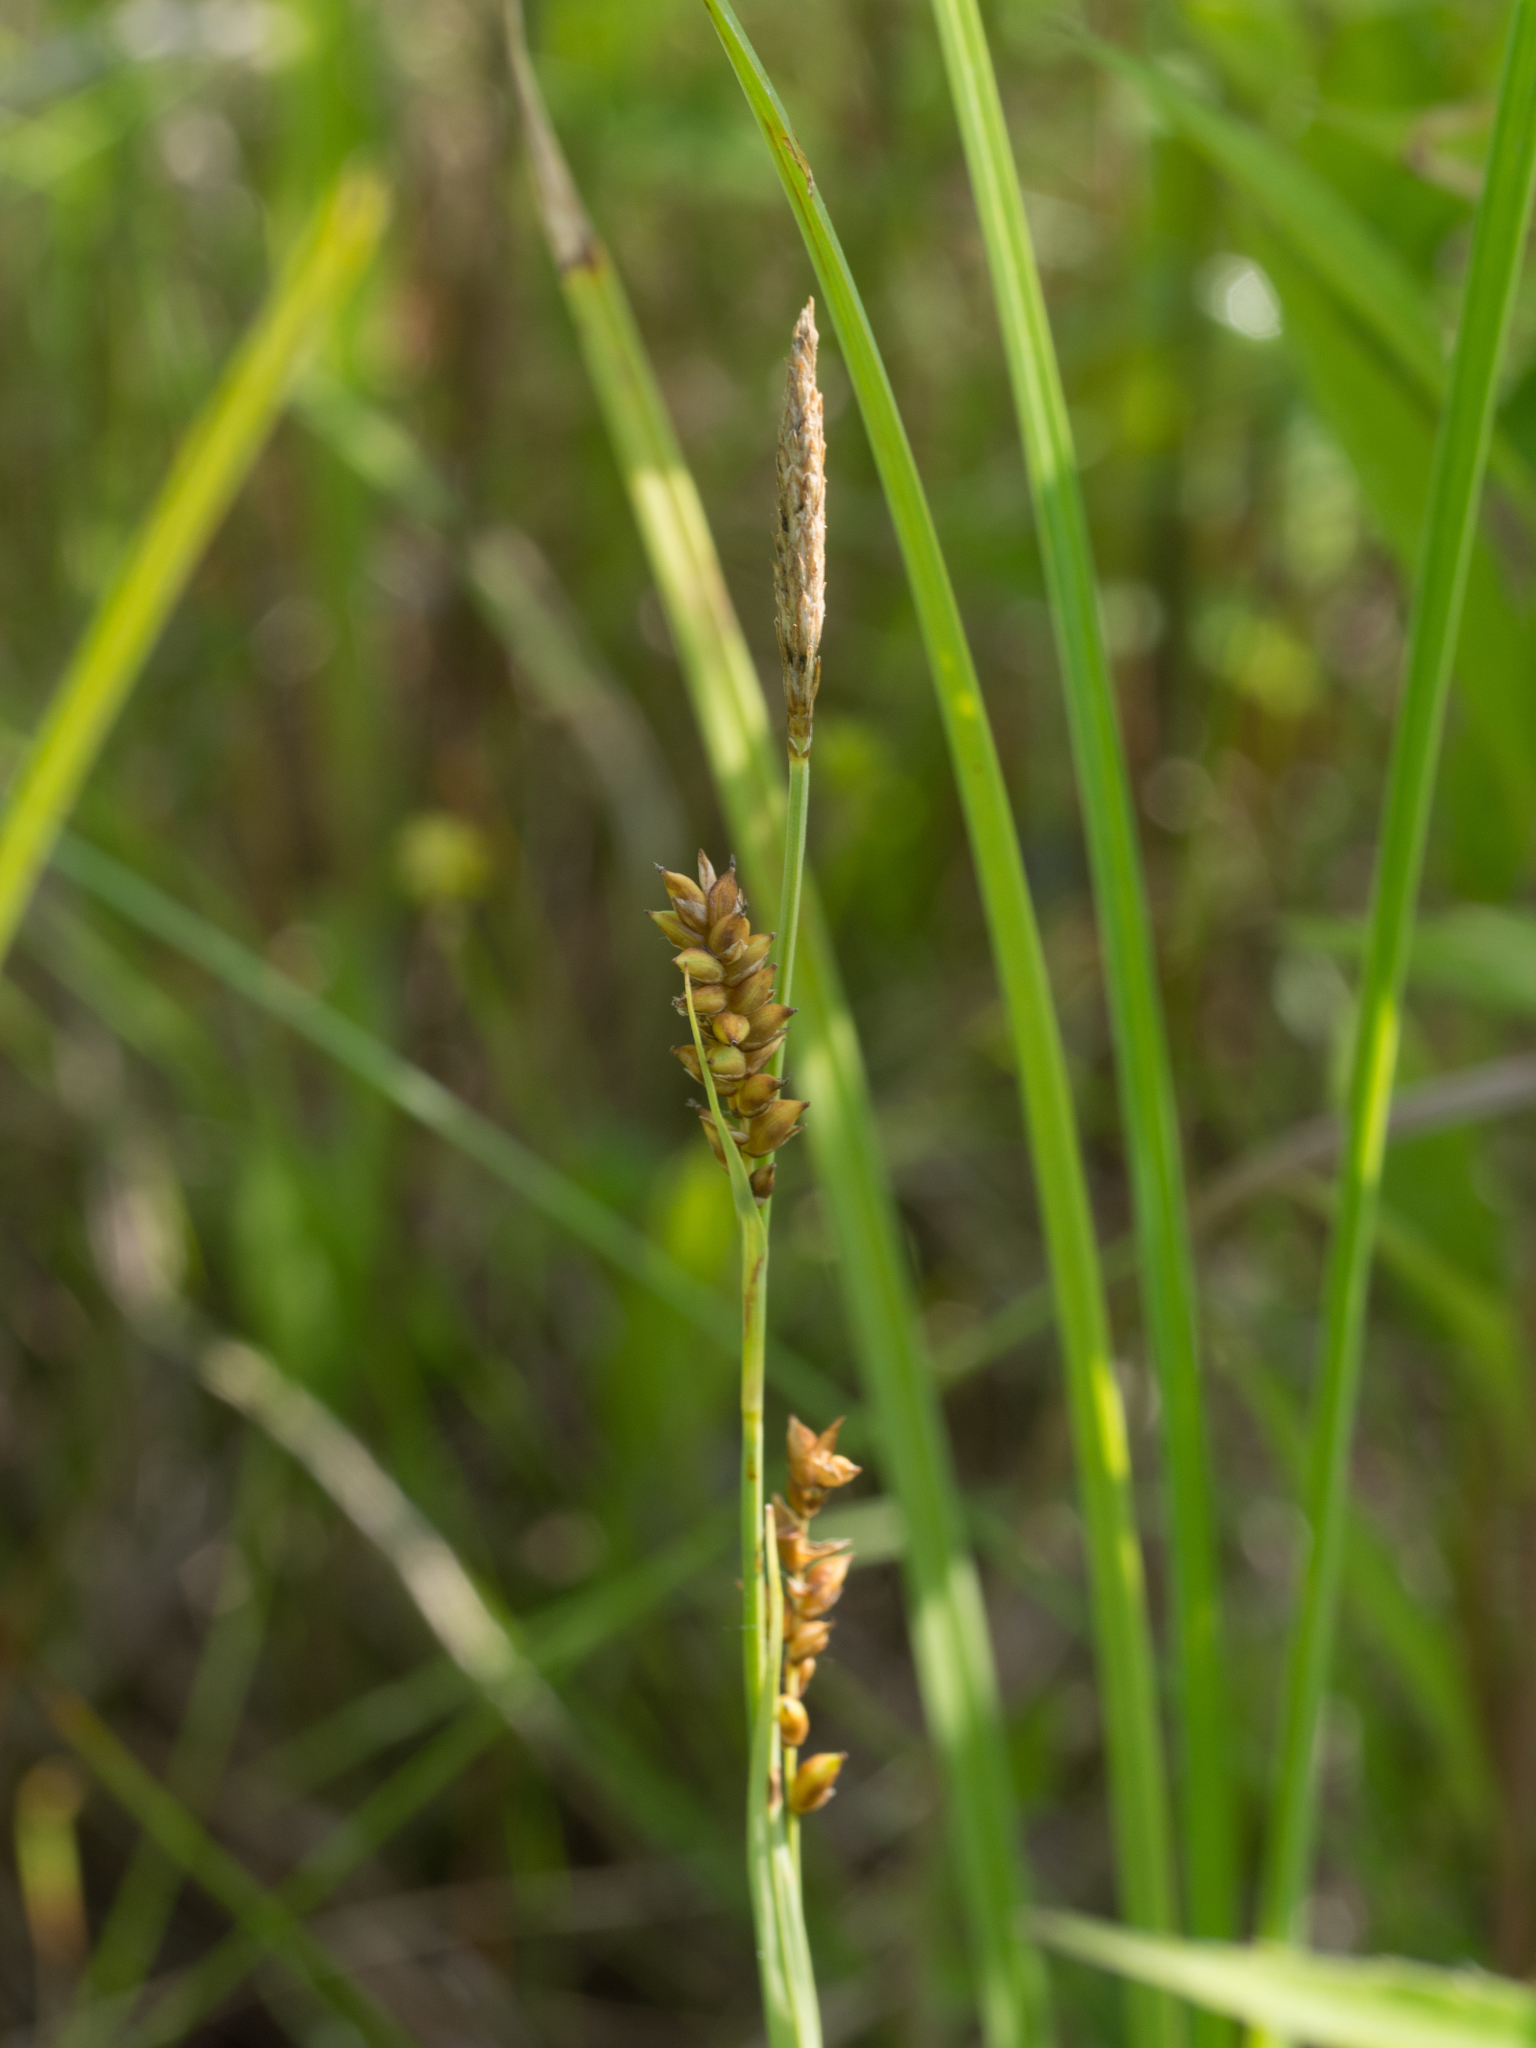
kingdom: Plantae
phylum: Tracheophyta
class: Liliopsida
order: Poales
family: Cyperaceae
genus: Carex
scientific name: Carex panicea
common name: Carnation sedge
